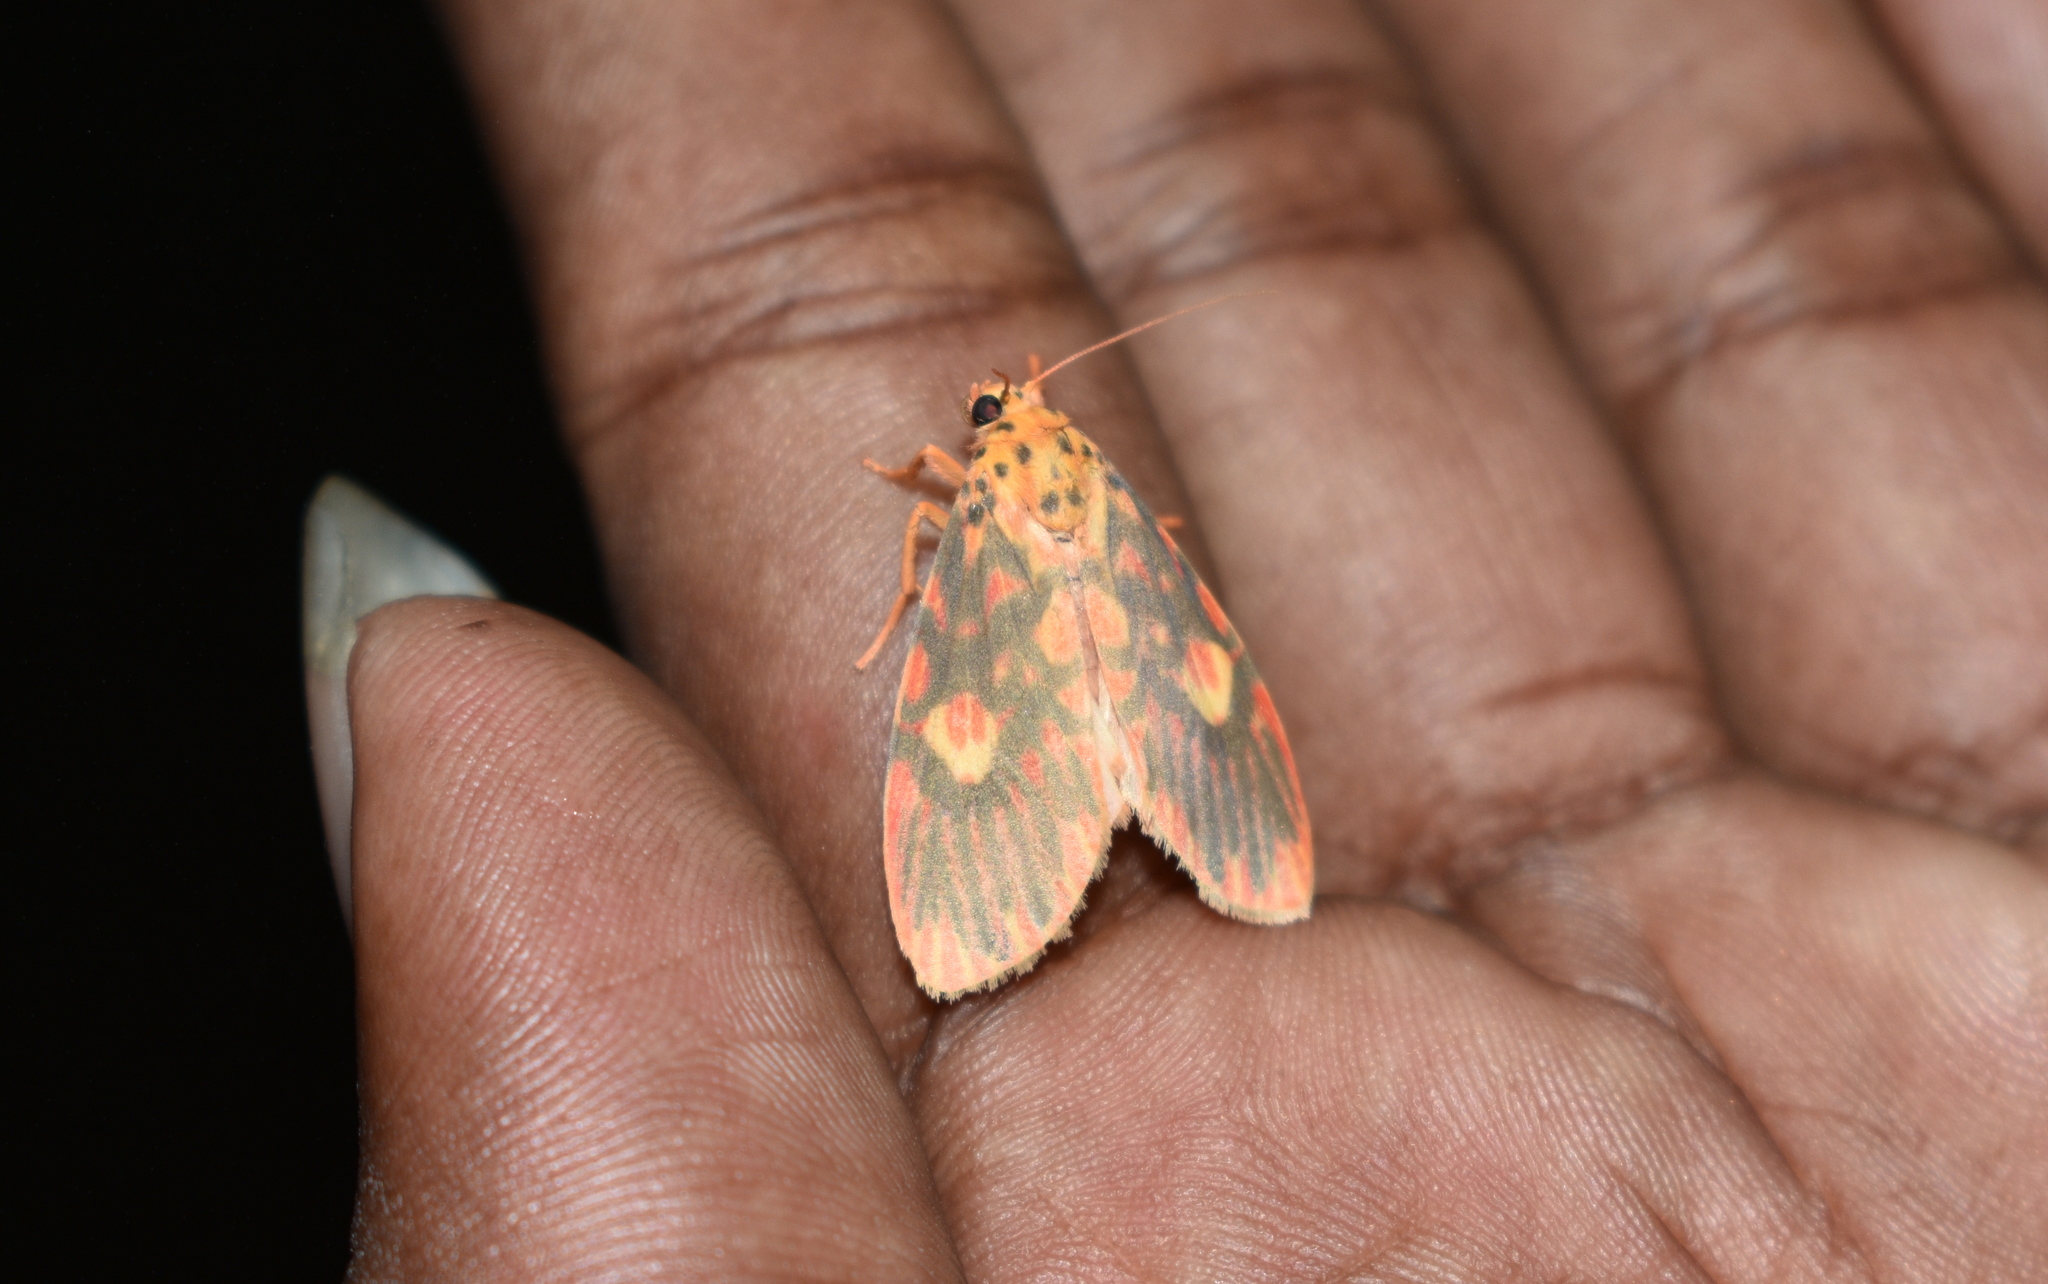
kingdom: Animalia
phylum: Arthropoda
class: Insecta
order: Lepidoptera
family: Erebidae
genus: Ammatho
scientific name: Ammatho cuneonotatus
